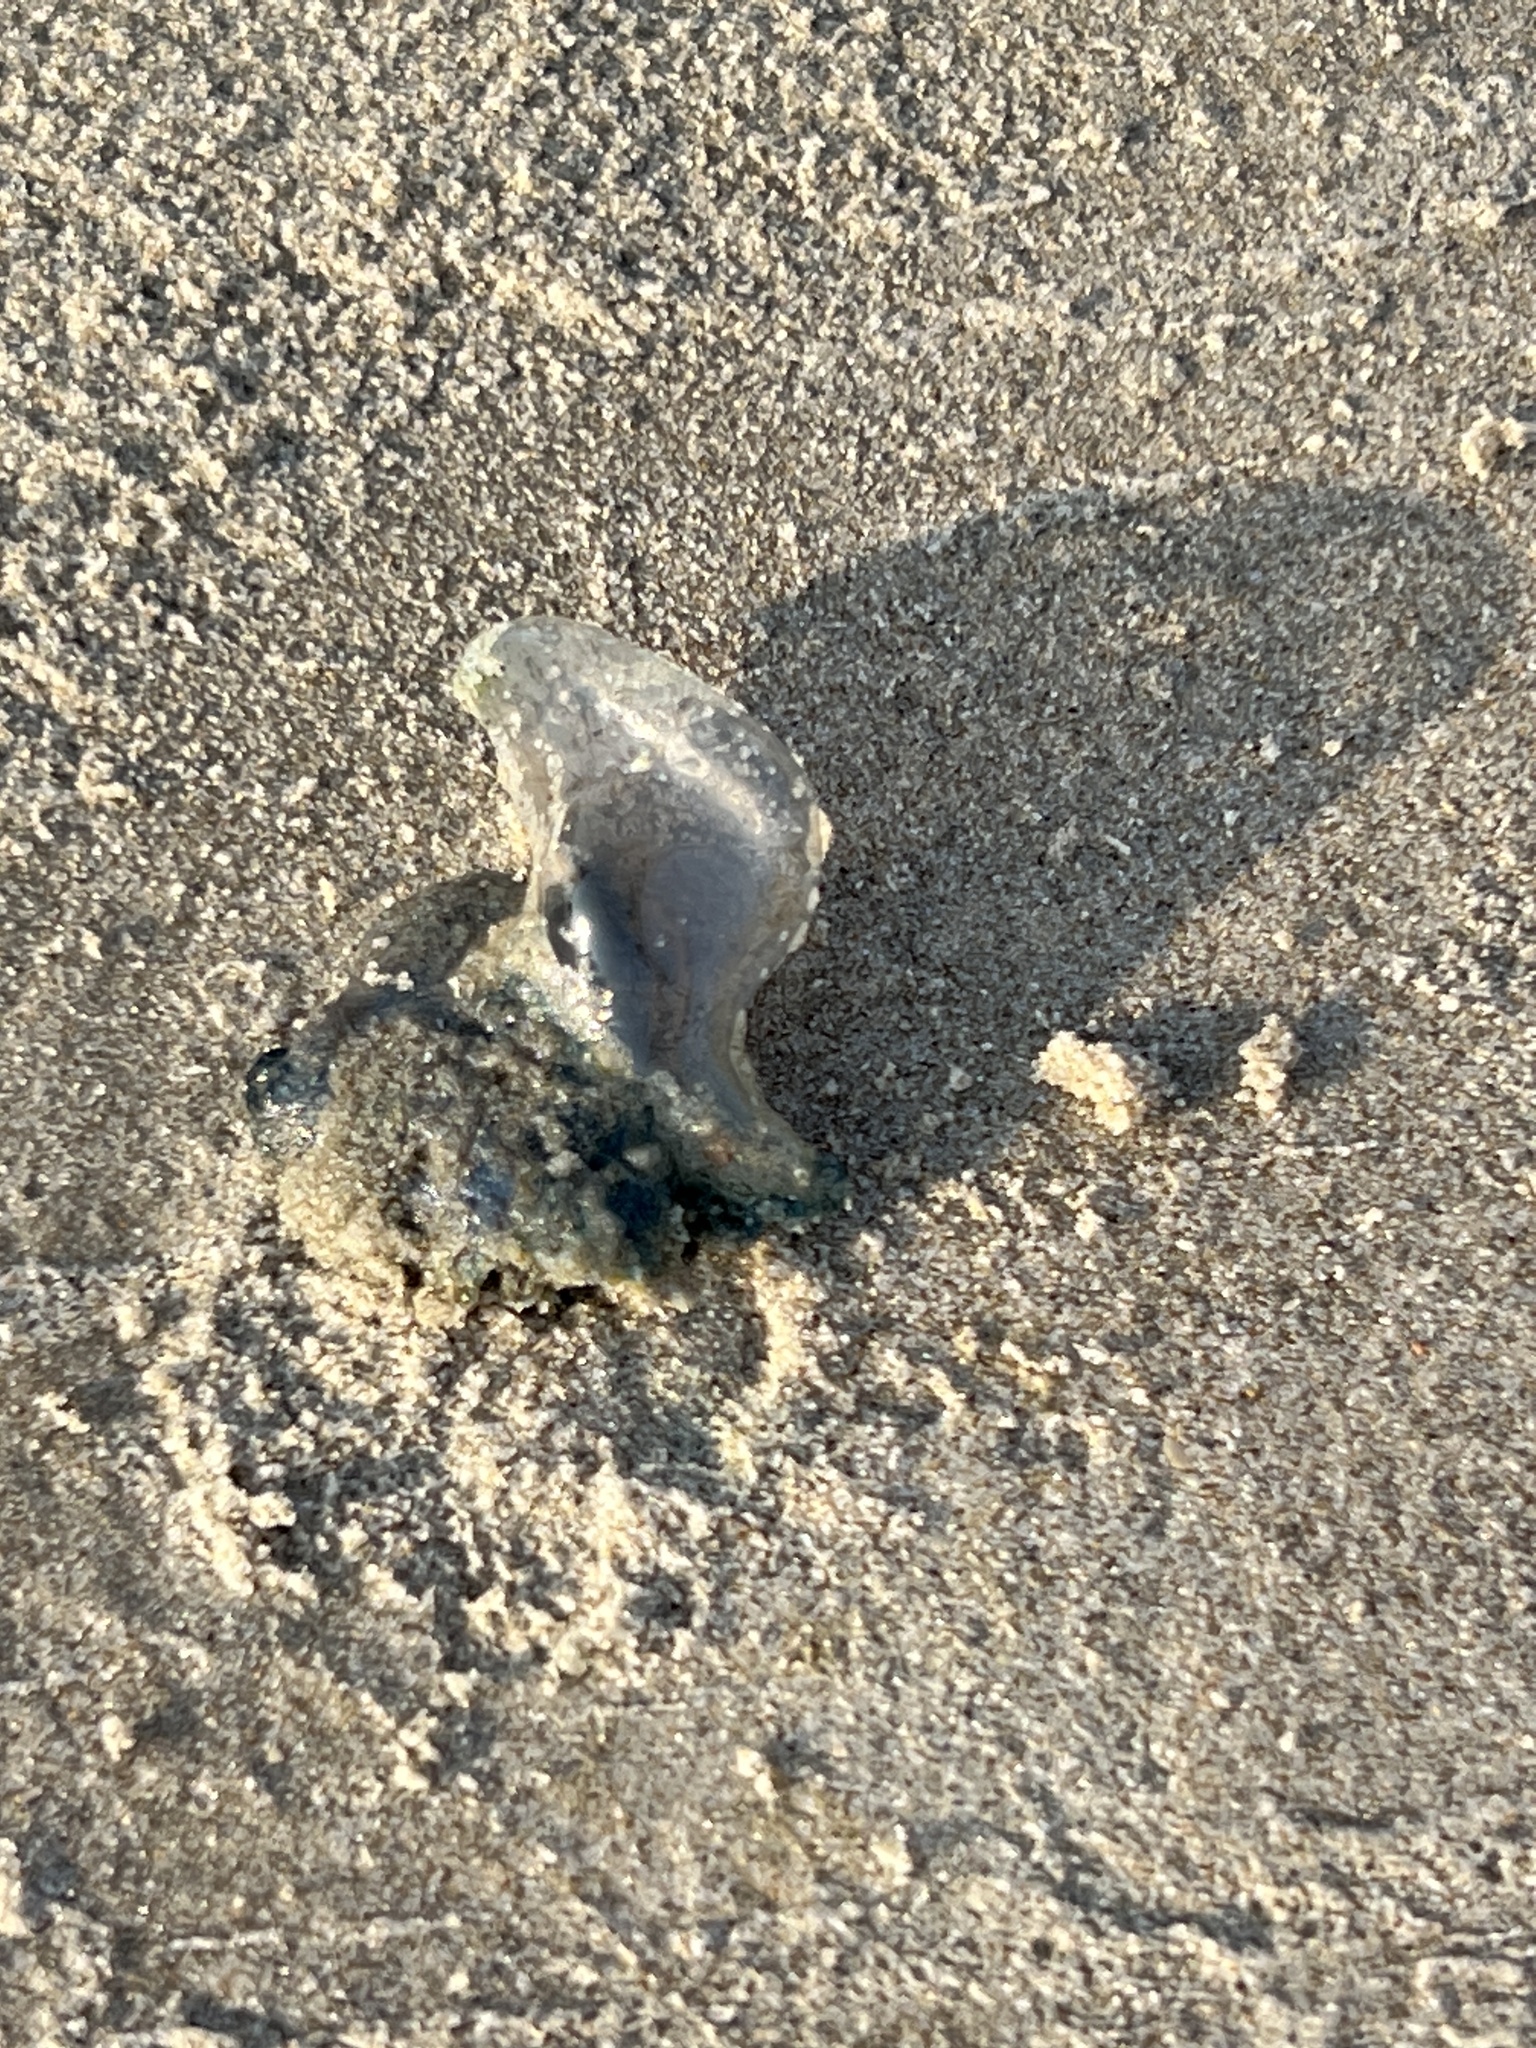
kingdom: Animalia
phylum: Cnidaria
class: Hydrozoa
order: Siphonophorae
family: Physaliidae
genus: Physalia
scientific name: Physalia physalis
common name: Portuguese man-of-war
